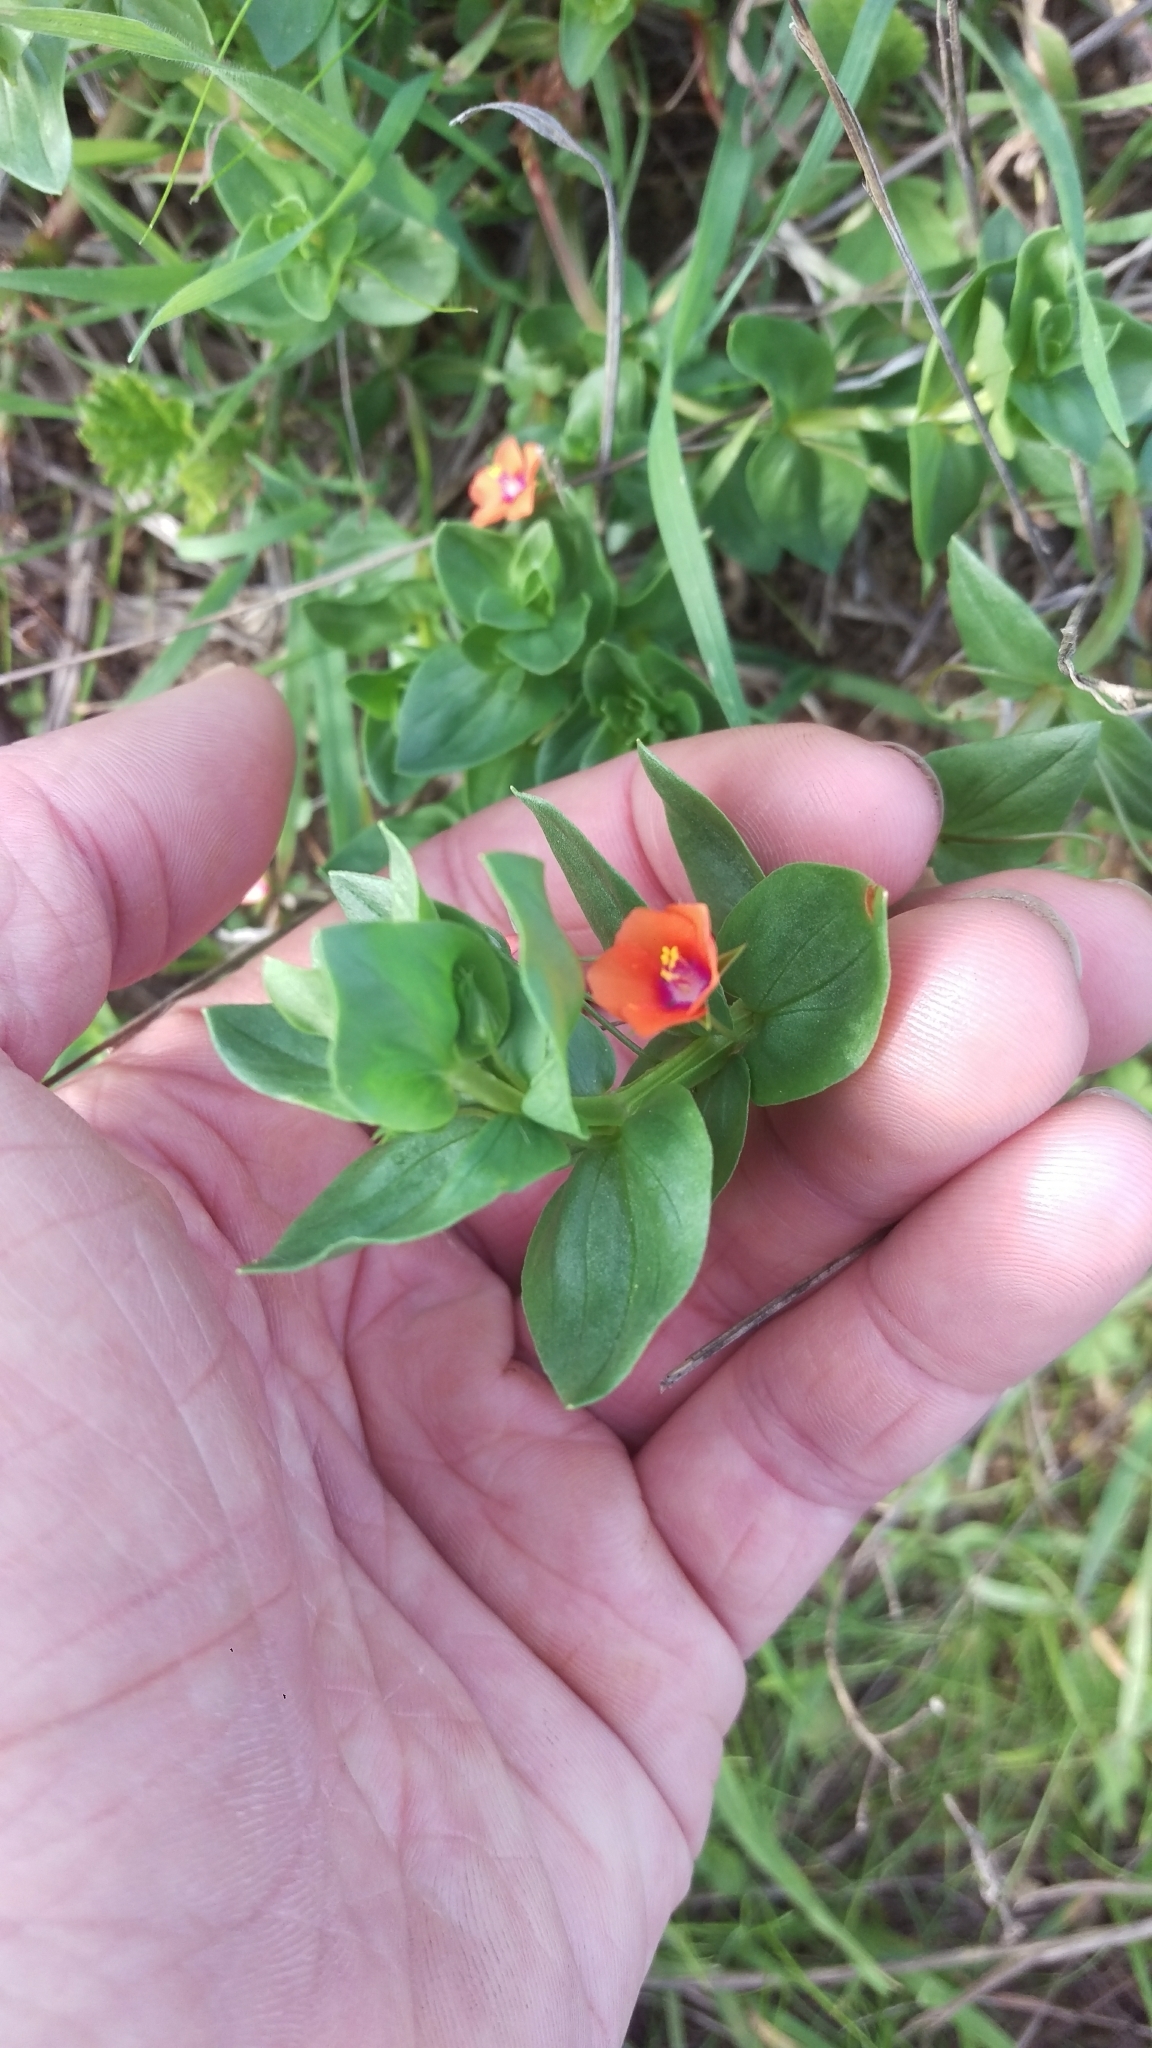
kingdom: Plantae
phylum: Tracheophyta
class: Magnoliopsida
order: Ericales
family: Primulaceae
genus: Lysimachia
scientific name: Lysimachia arvensis
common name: Scarlet pimpernel
